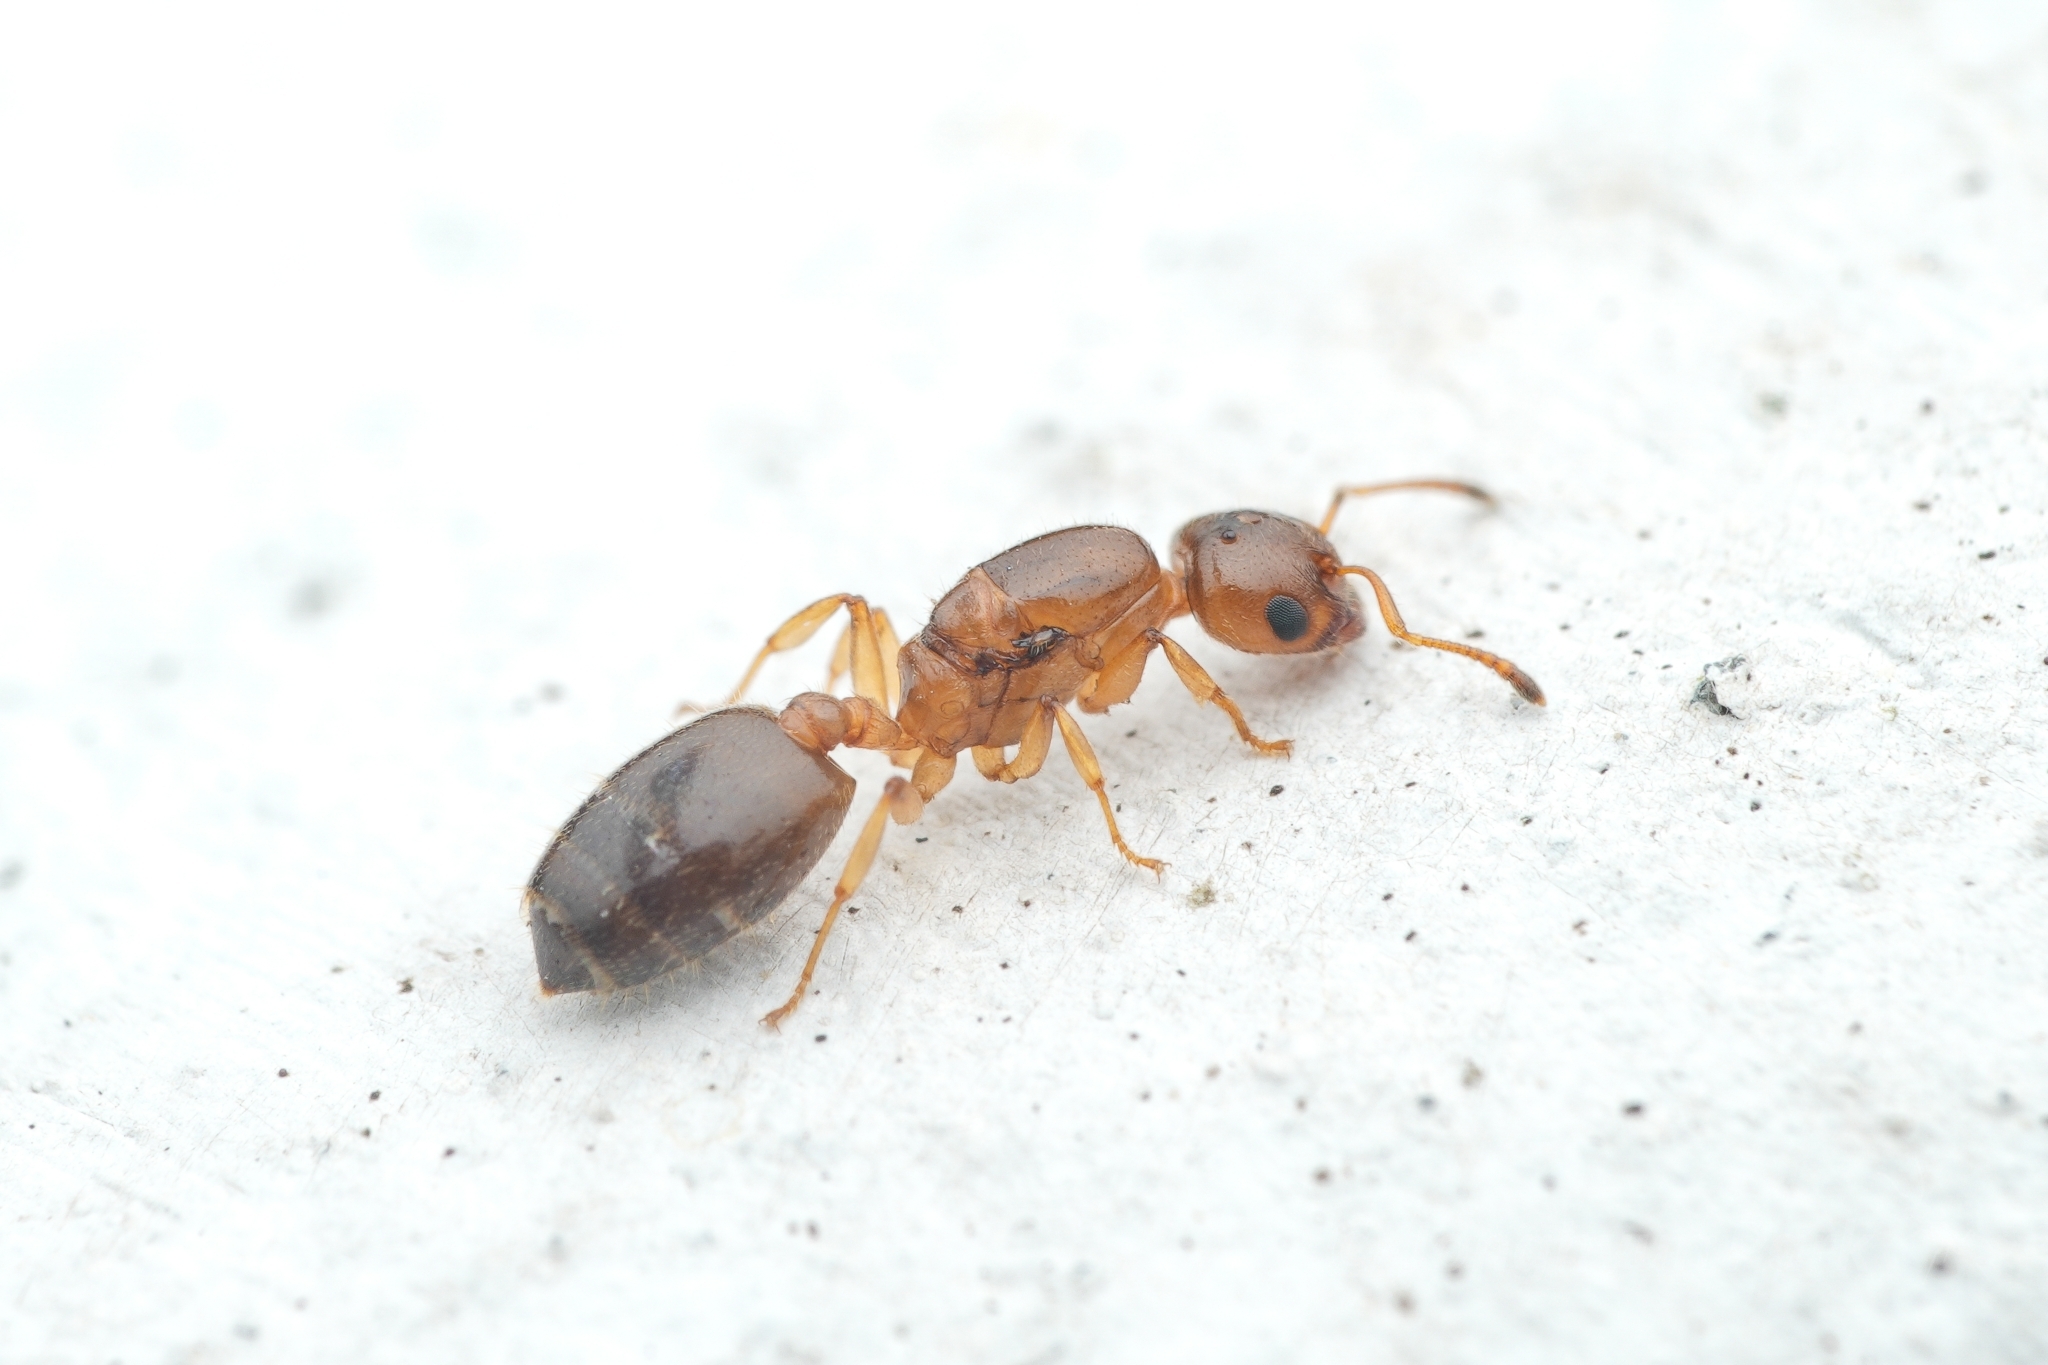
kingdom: Animalia
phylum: Arthropoda
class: Insecta
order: Hymenoptera
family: Formicidae
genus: Crematogaster
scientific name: Crematogaster
